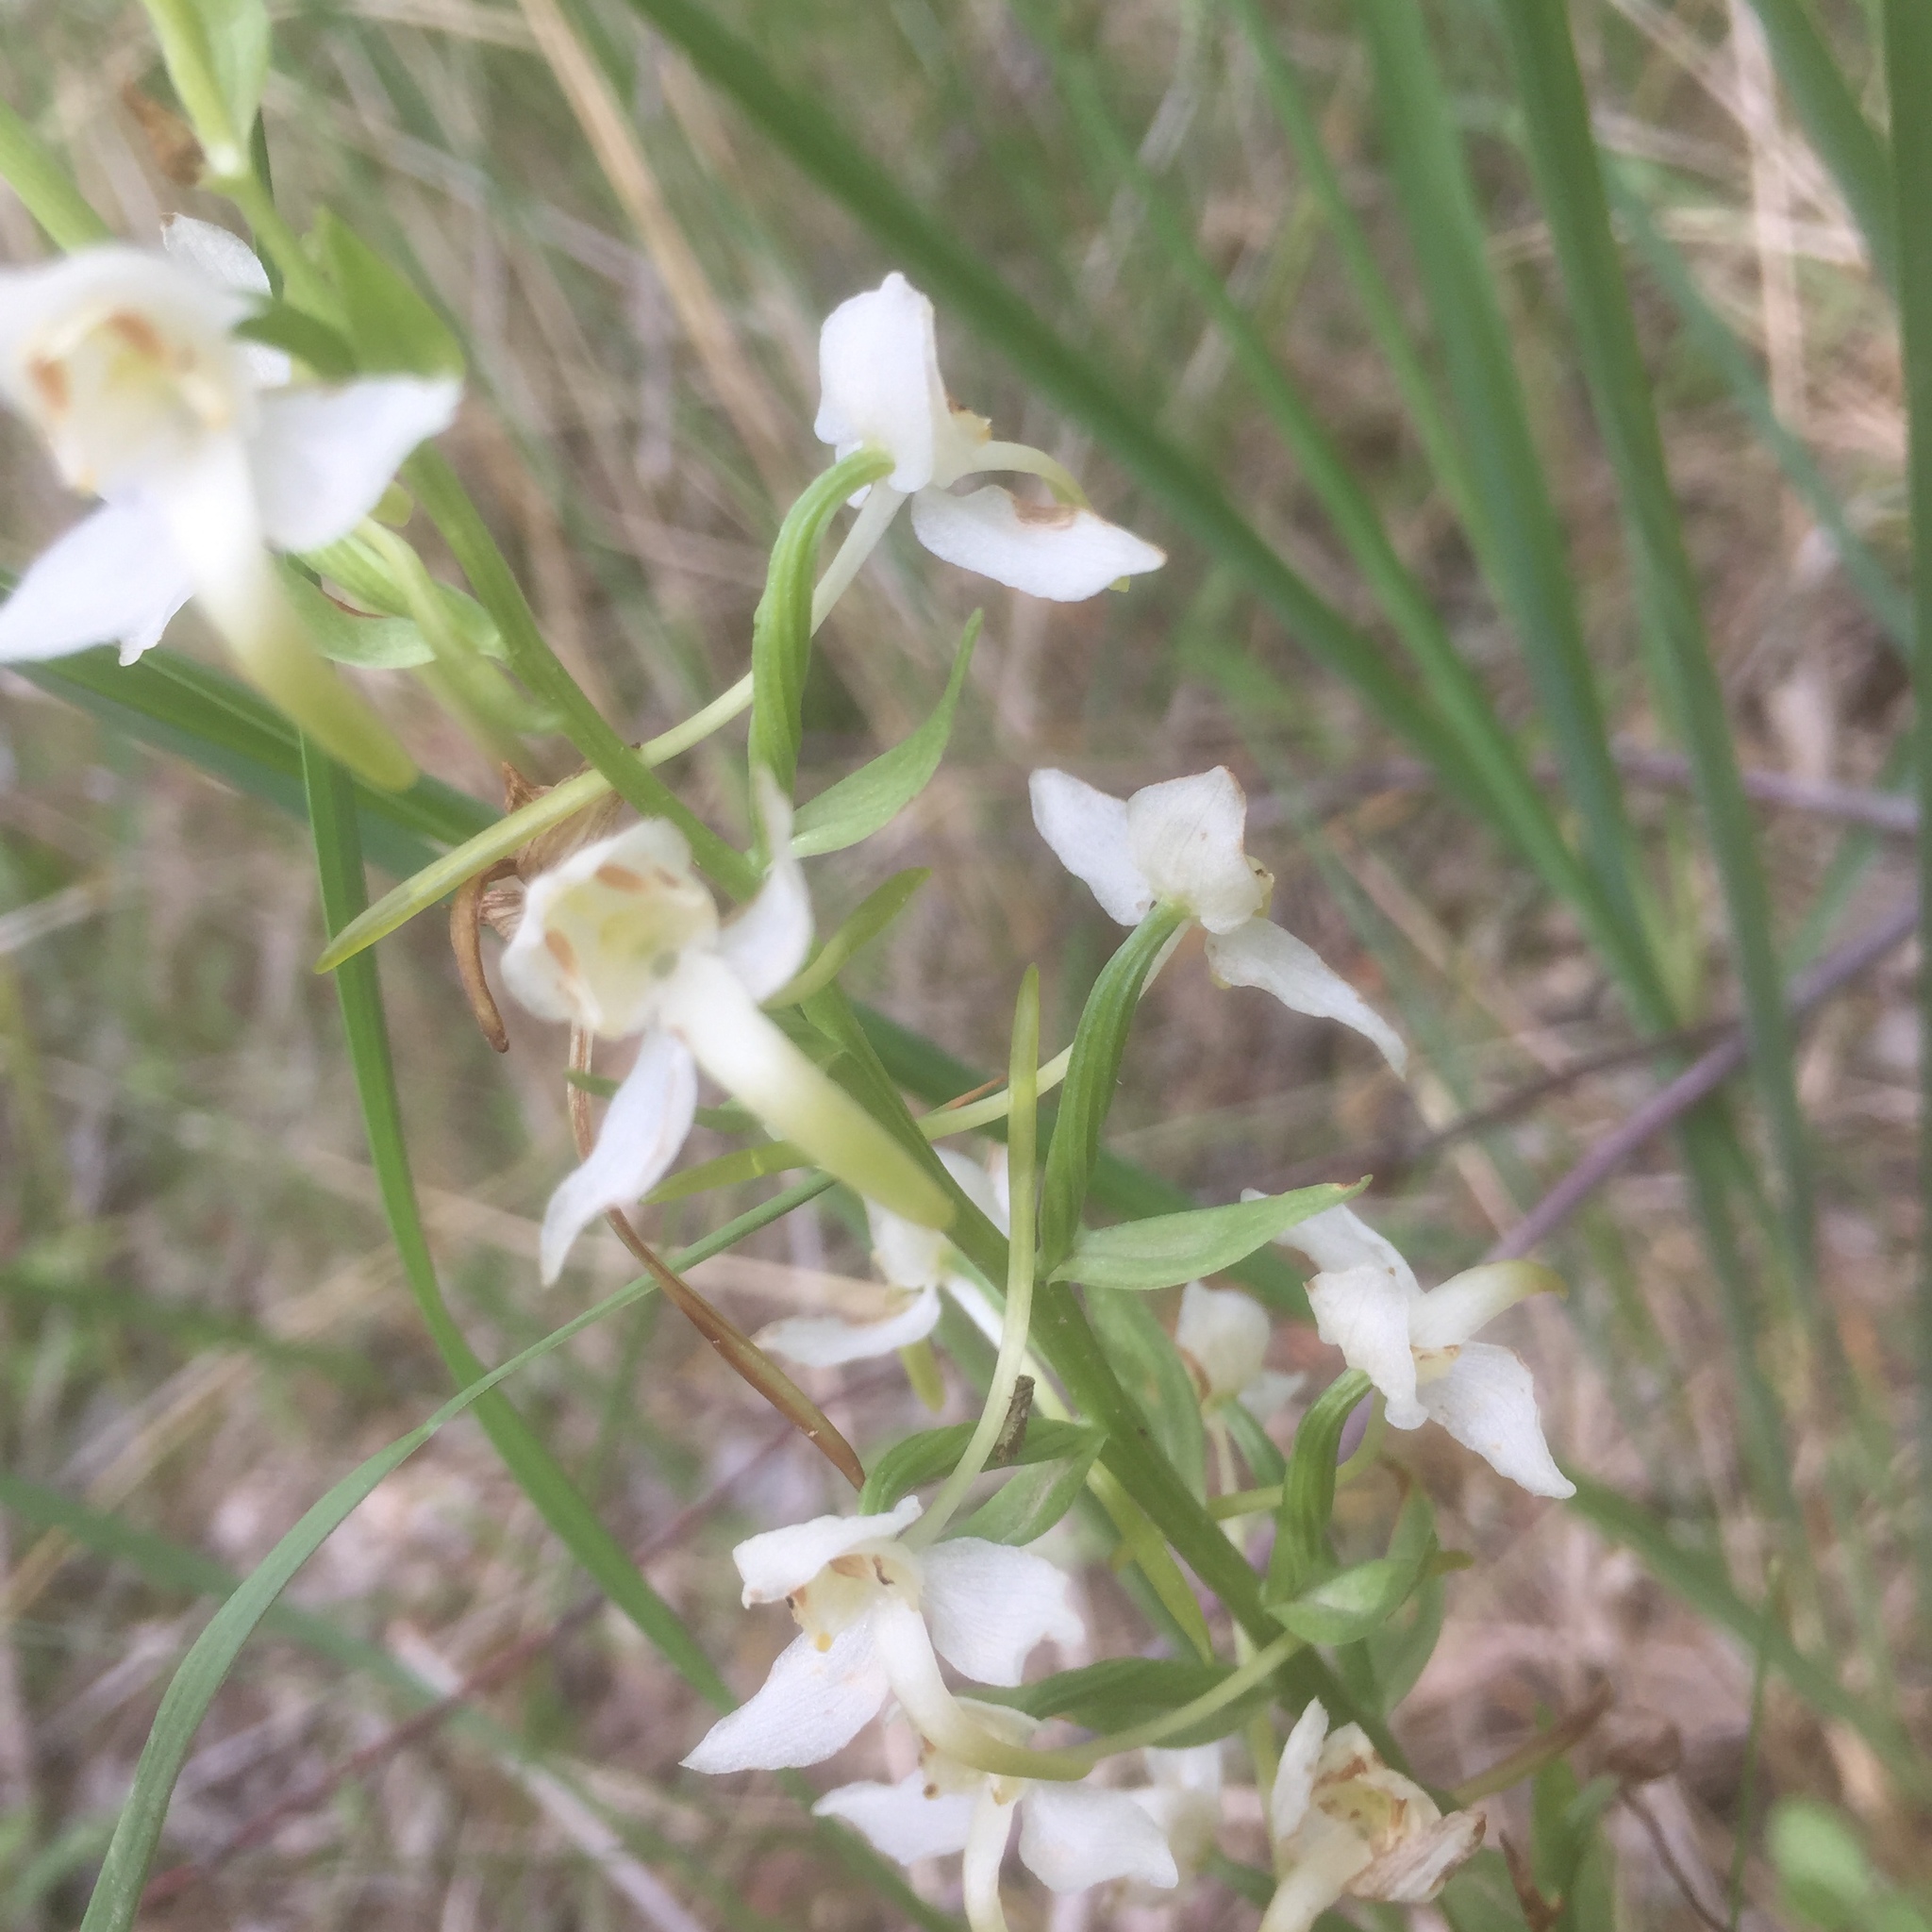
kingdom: Plantae
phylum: Tracheophyta
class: Liliopsida
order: Asparagales
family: Orchidaceae
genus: Platanthera
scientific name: Platanthera chlorantha
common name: Greater butterfly-orchid
